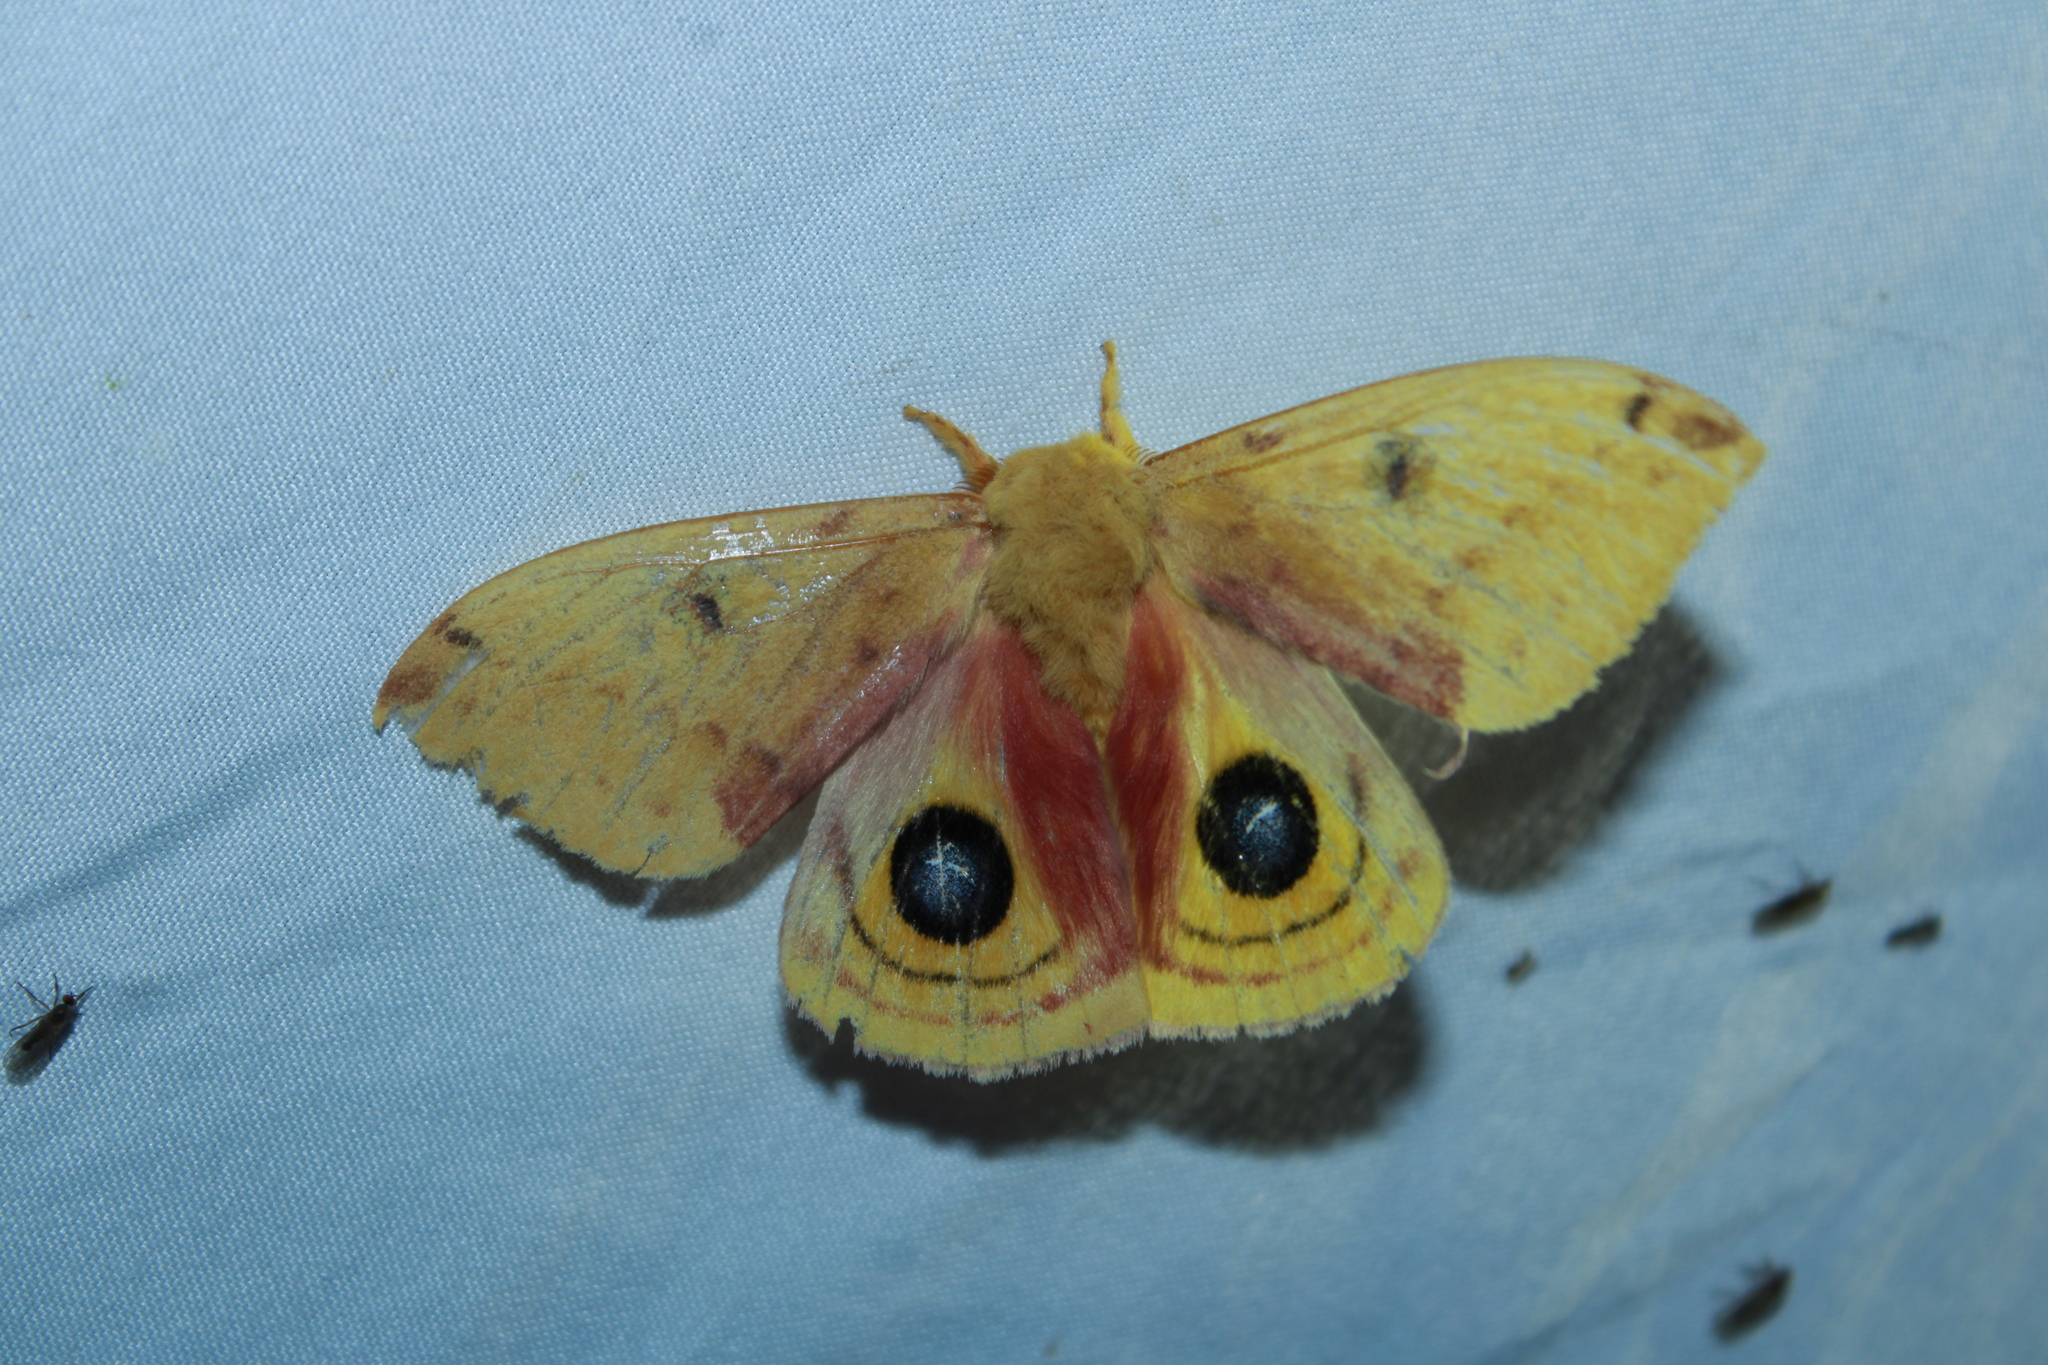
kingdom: Animalia
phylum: Arthropoda
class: Insecta
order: Lepidoptera
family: Saturniidae
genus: Automeris
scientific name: Automeris io
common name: Io moth
